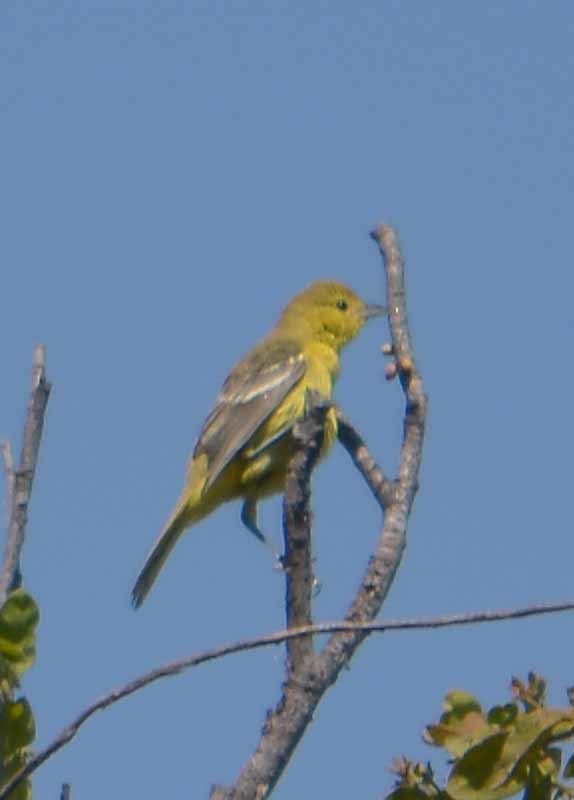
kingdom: Animalia
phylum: Chordata
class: Aves
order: Passeriformes
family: Icteridae
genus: Icterus
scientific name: Icterus spurius
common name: Orchard oriole
